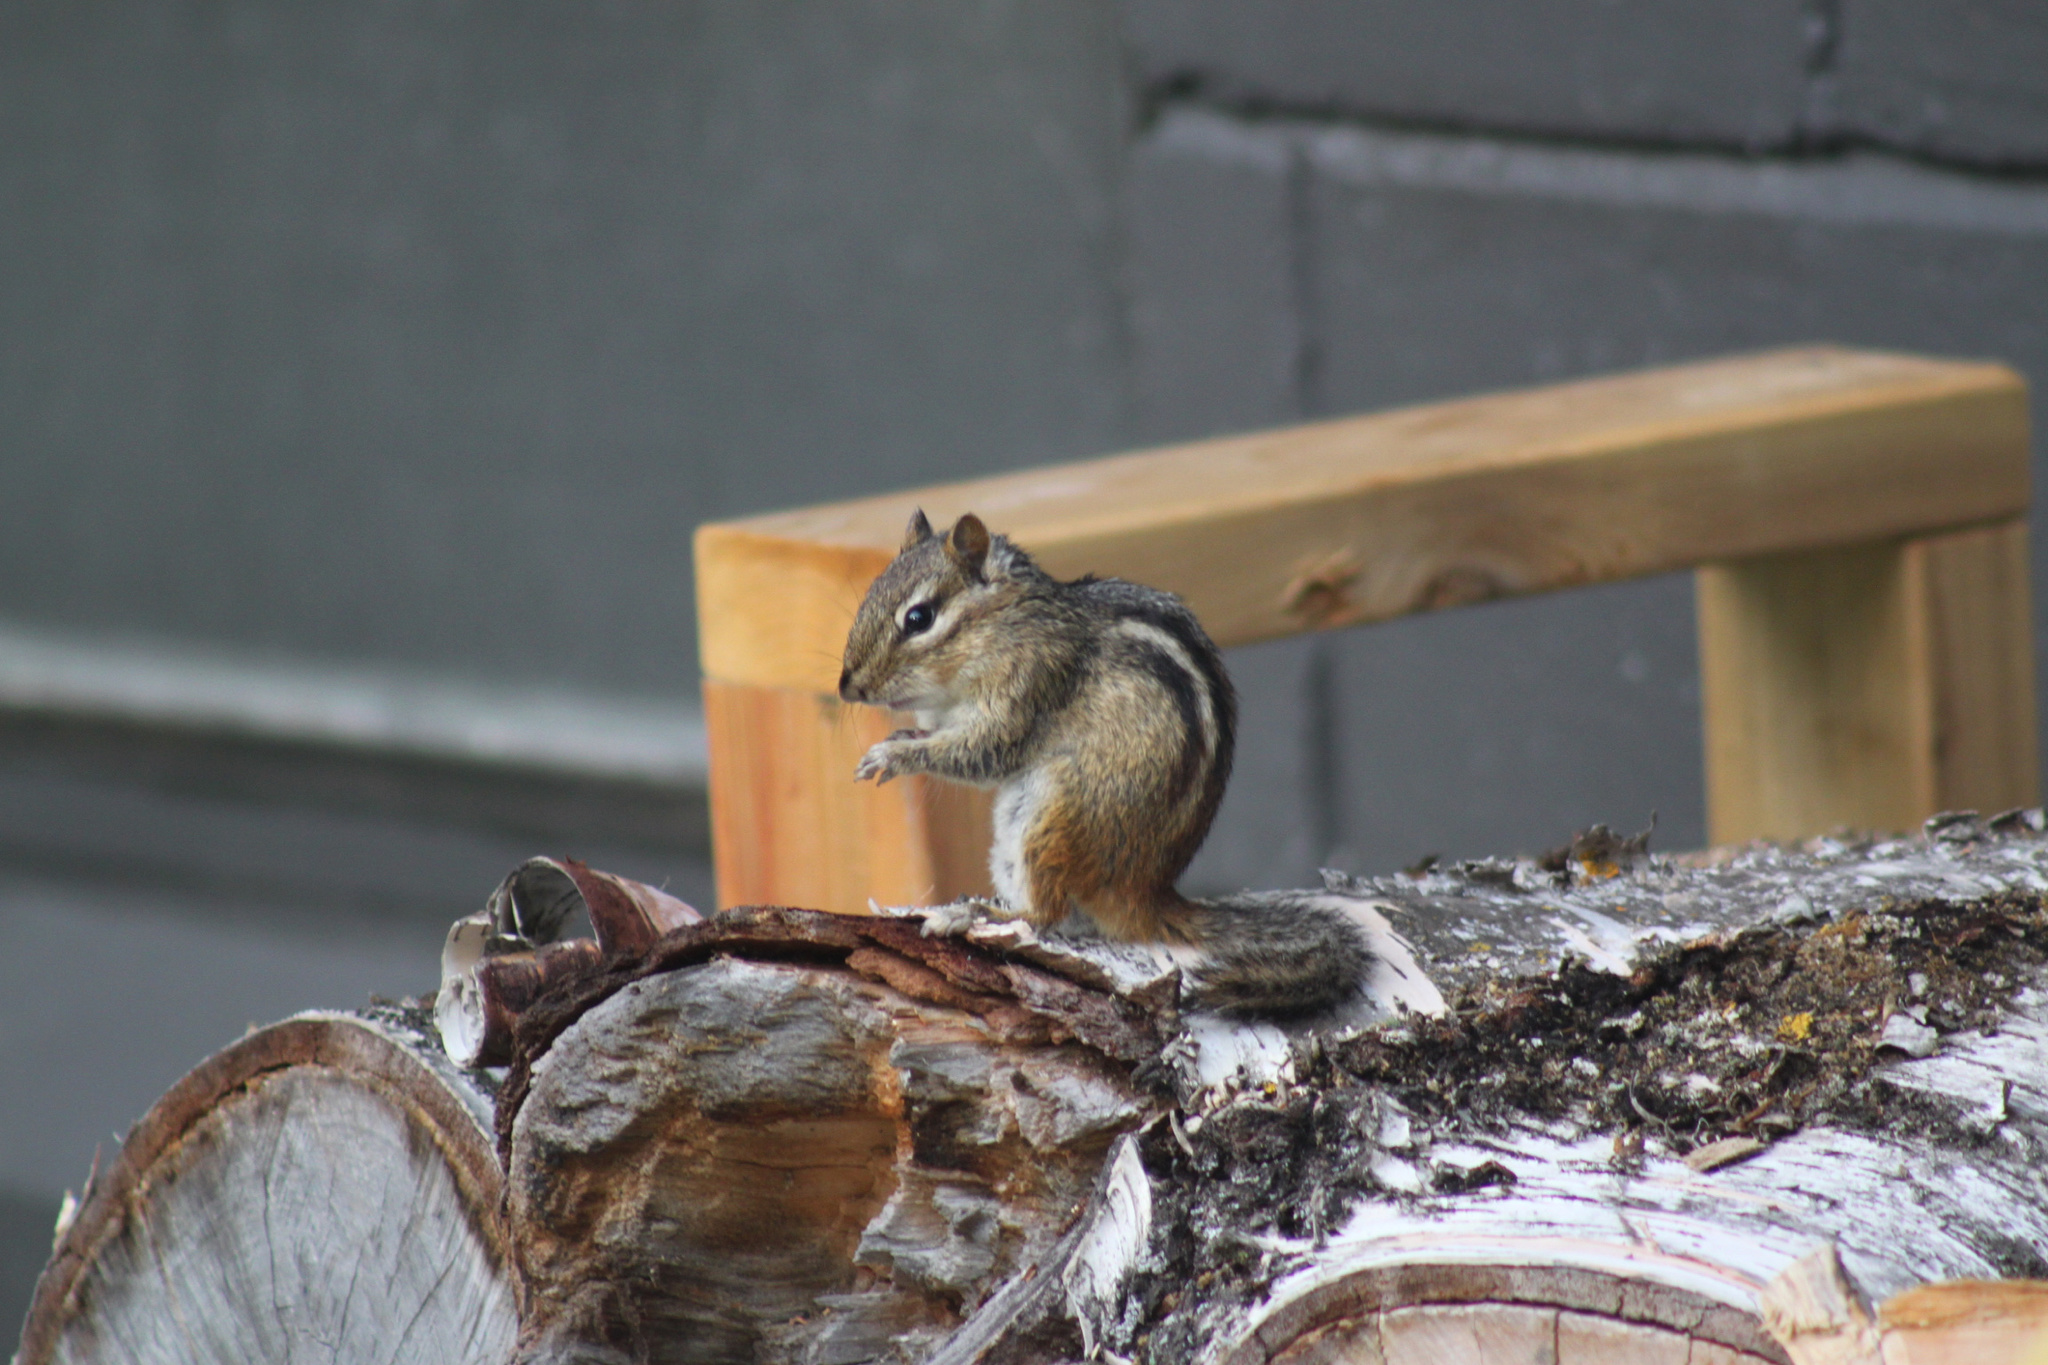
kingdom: Animalia
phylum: Chordata
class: Mammalia
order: Rodentia
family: Sciuridae
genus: Tamias
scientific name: Tamias striatus
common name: Eastern chipmunk
